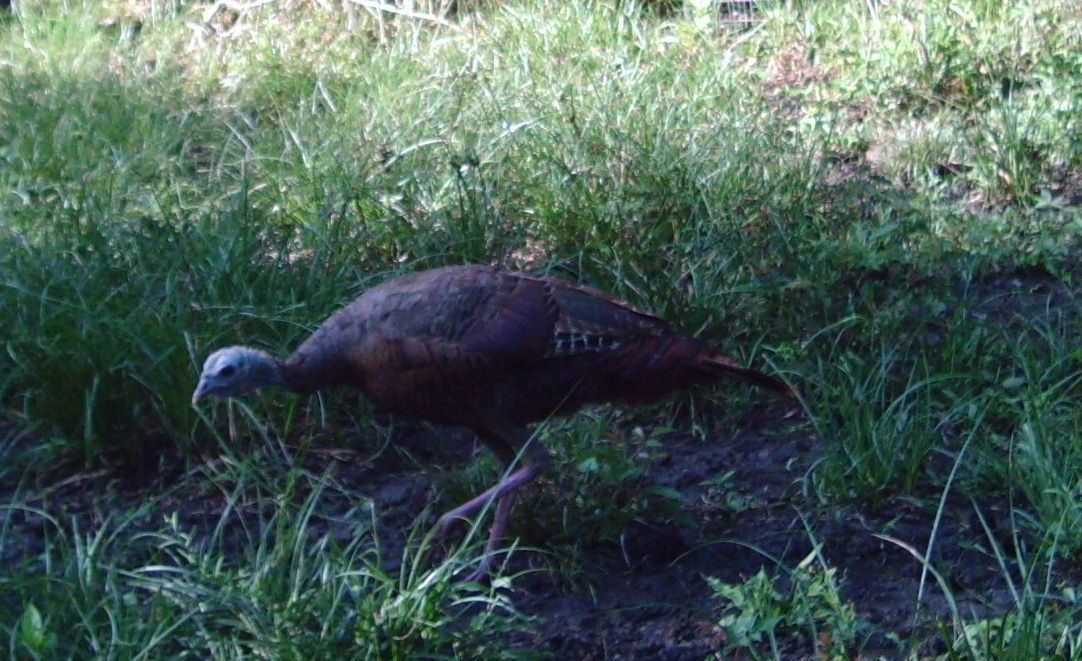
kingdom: Animalia
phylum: Chordata
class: Aves
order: Galliformes
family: Phasianidae
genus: Meleagris
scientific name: Meleagris gallopavo
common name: Wild turkey
